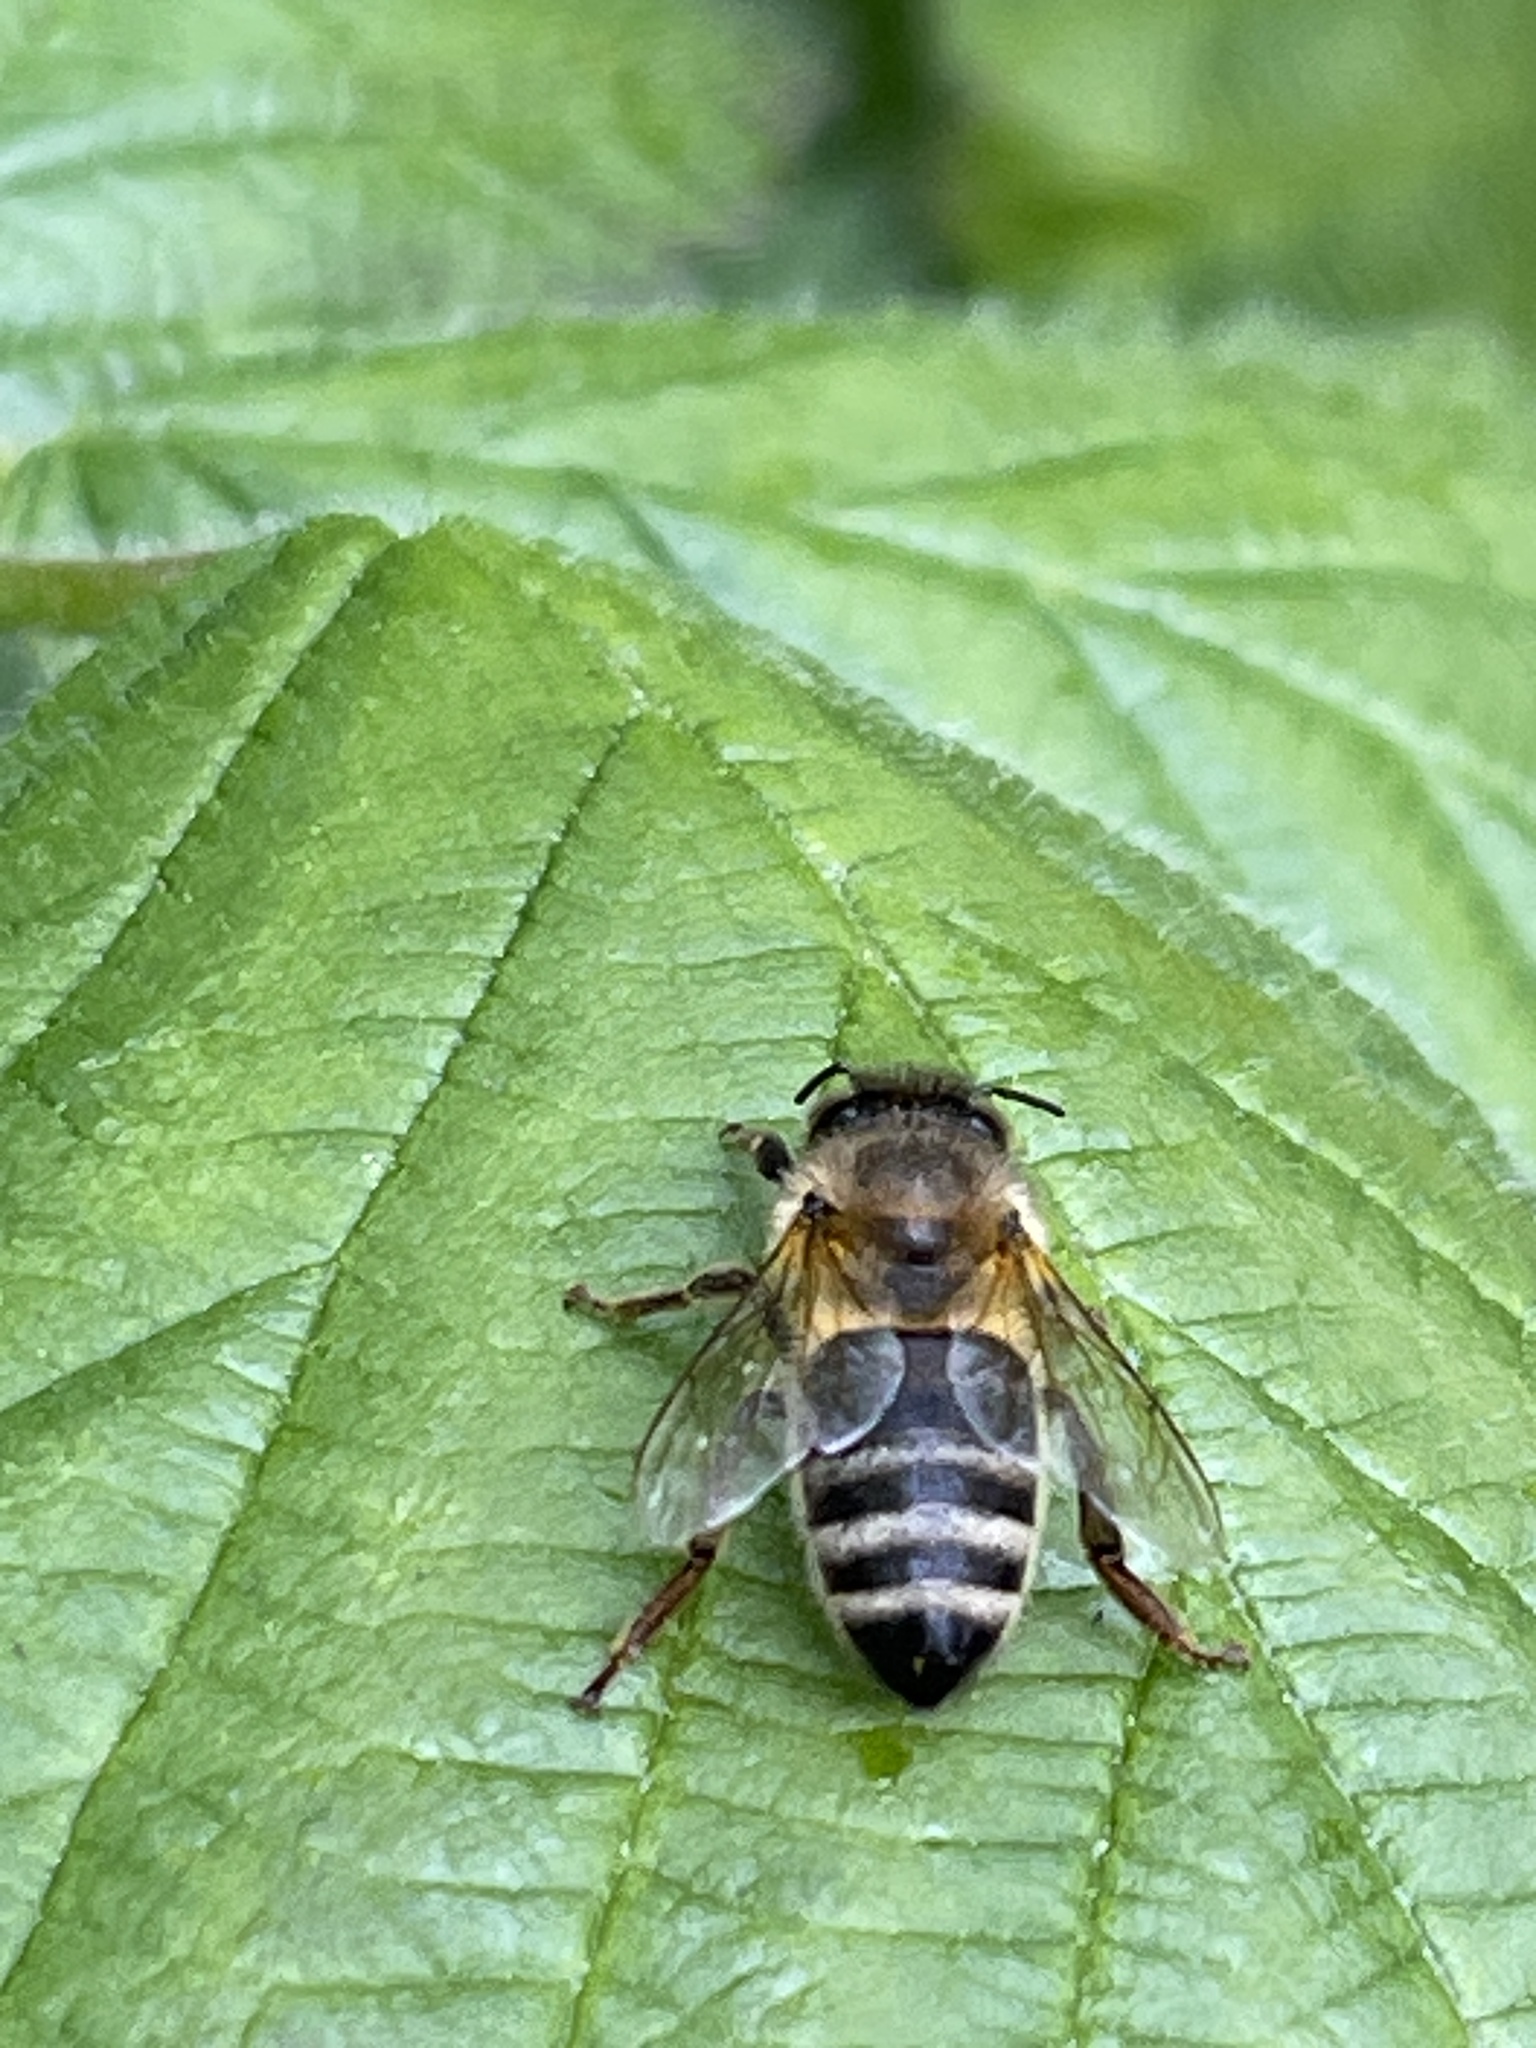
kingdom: Animalia
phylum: Arthropoda
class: Insecta
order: Hymenoptera
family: Apidae
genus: Apis
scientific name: Apis mellifera
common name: Honey bee
